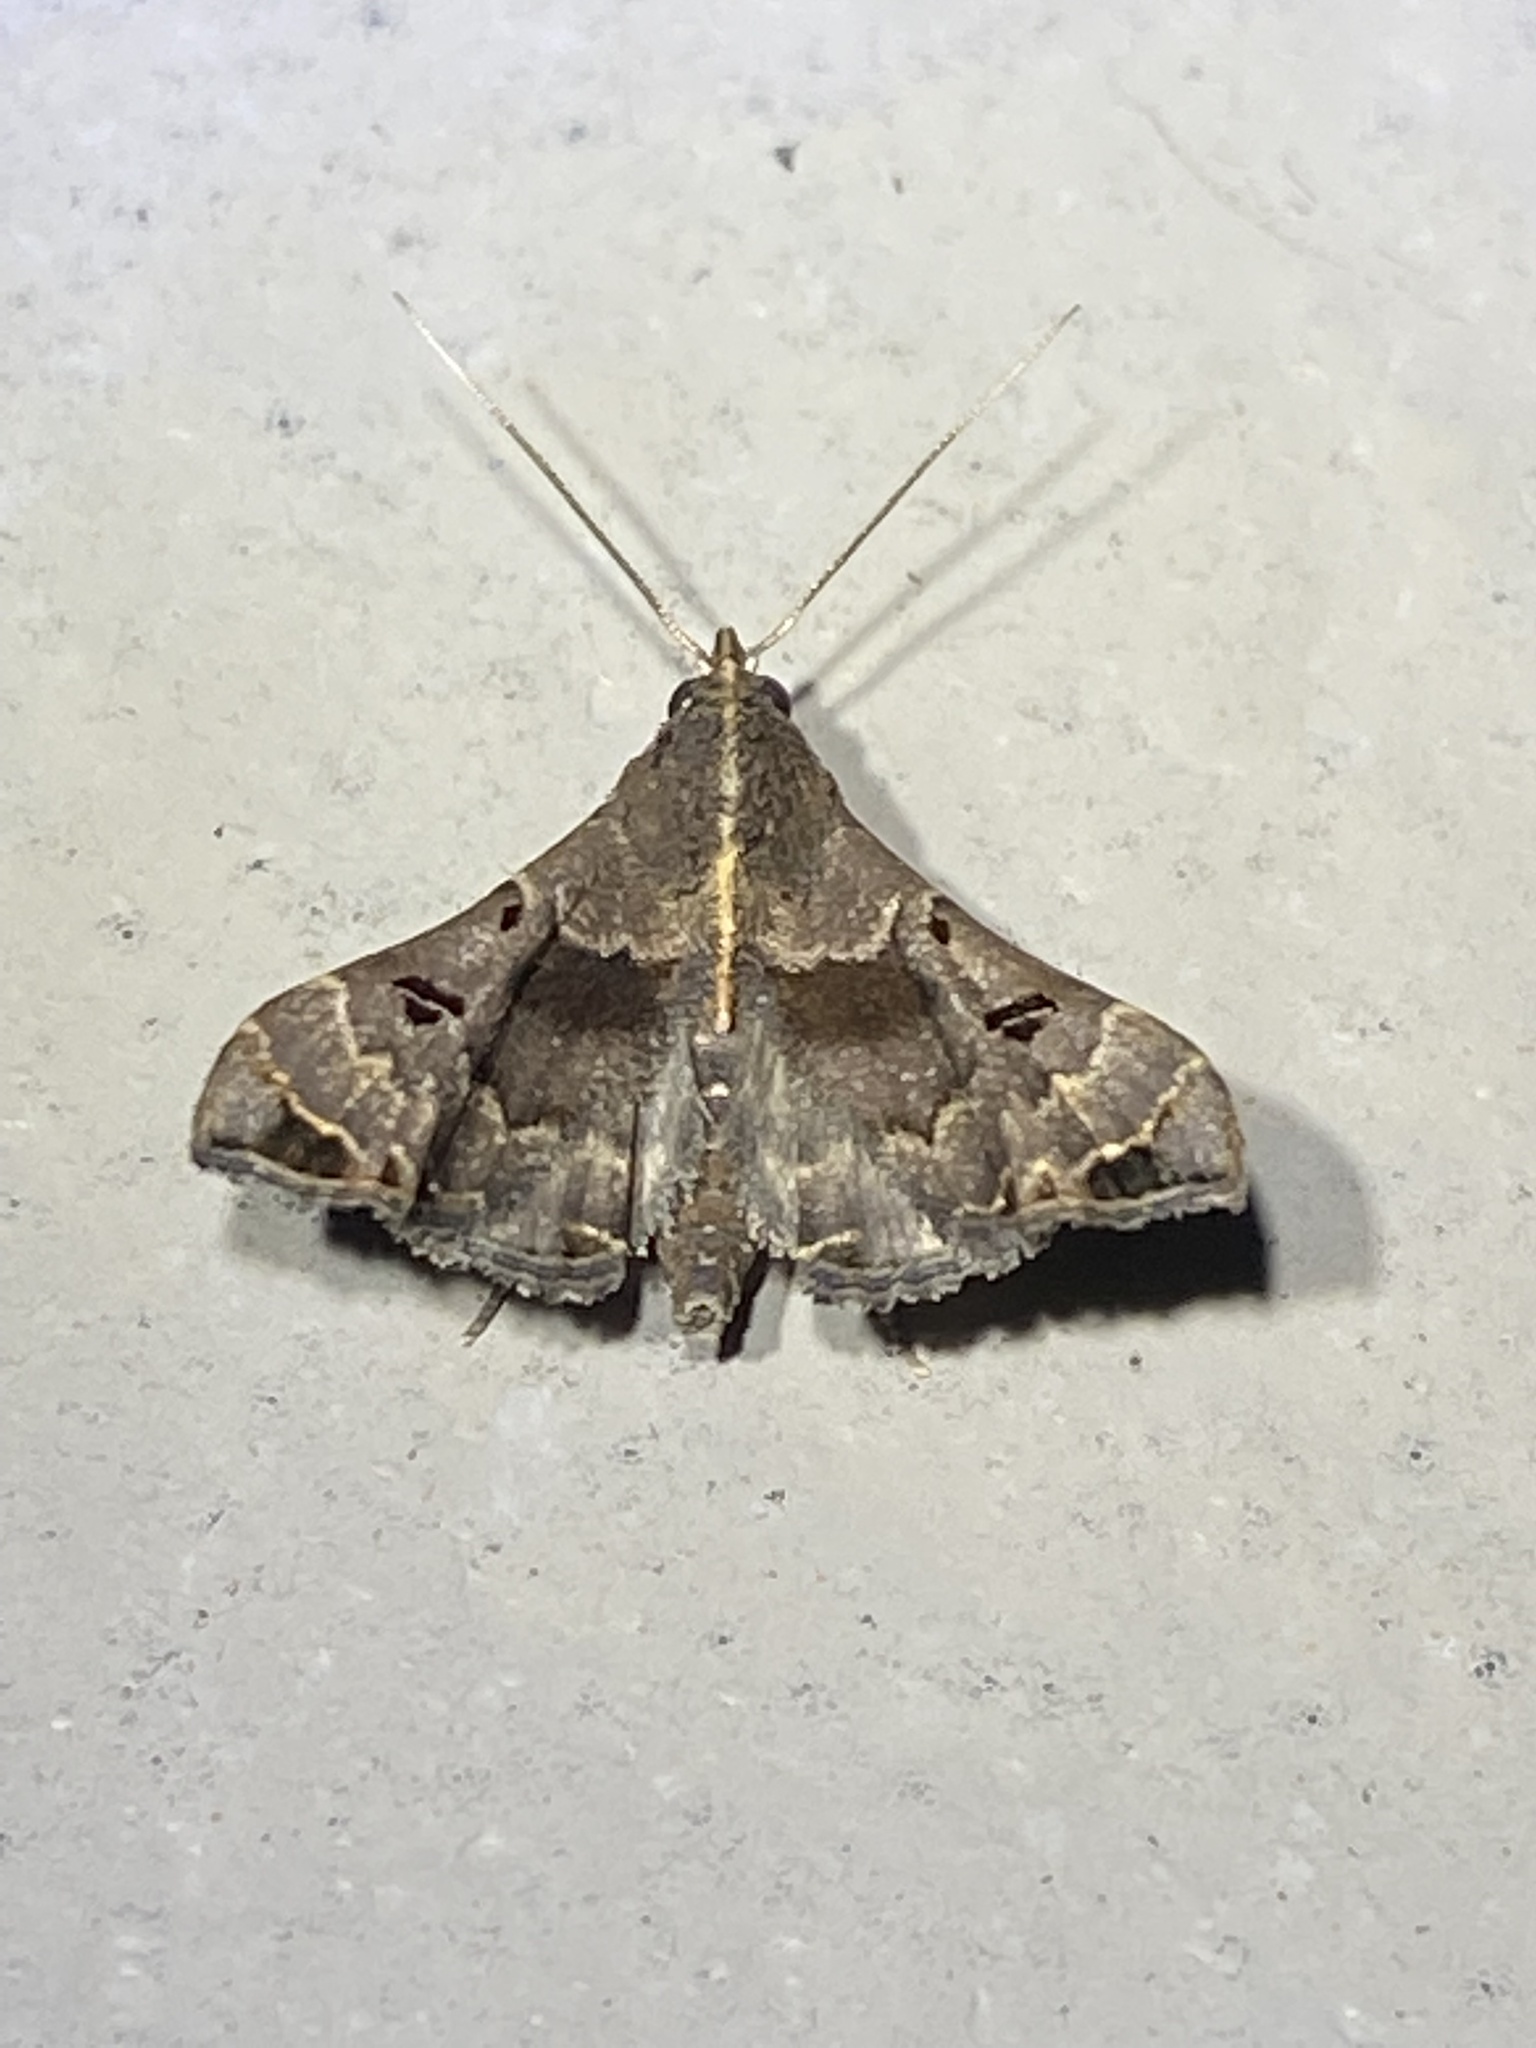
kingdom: Animalia
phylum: Arthropoda
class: Insecta
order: Lepidoptera
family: Erebidae
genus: Palthis
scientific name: Palthis asopialis
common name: Faint-spotted palthis moth
